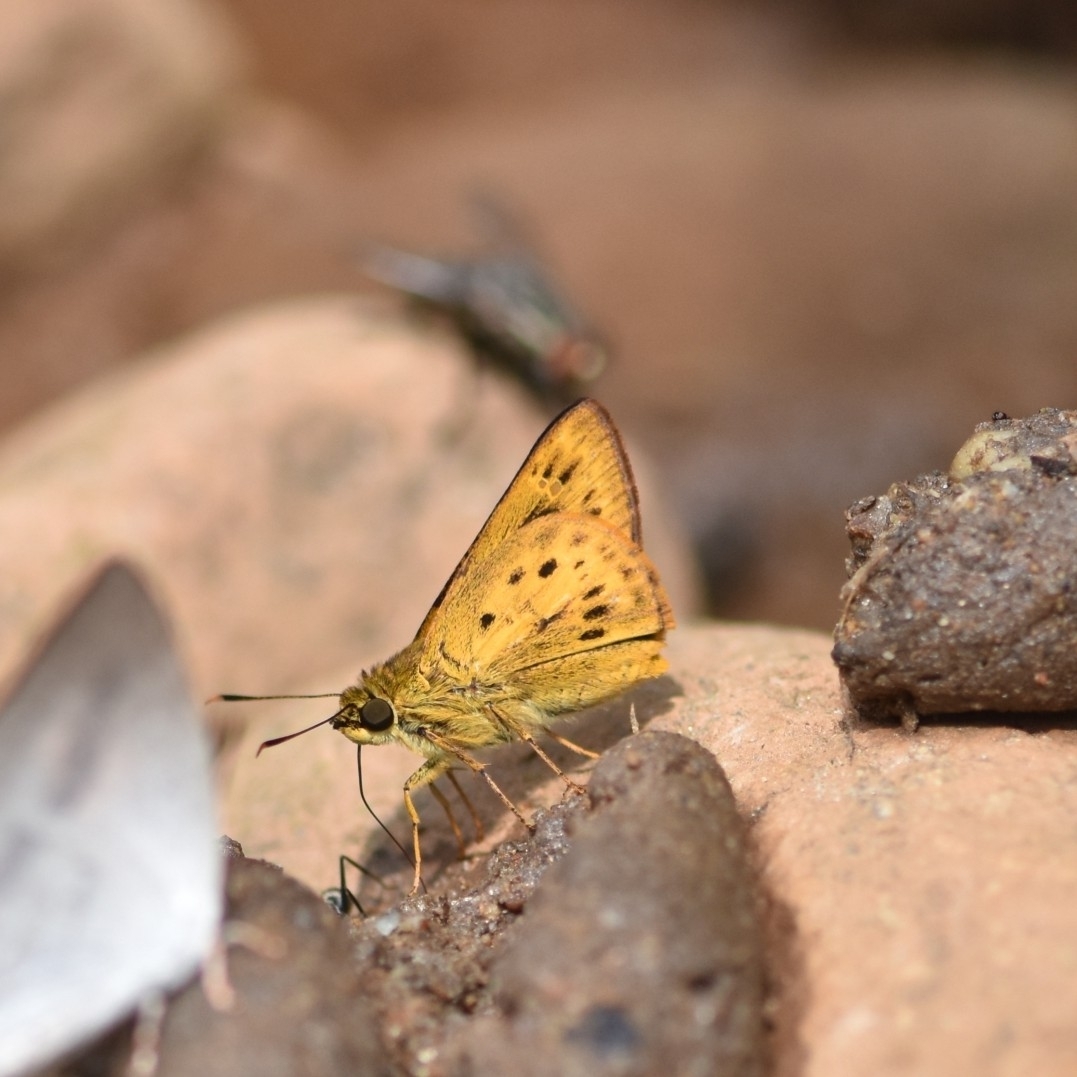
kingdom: Animalia
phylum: Arthropoda
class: Insecta
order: Lepidoptera
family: Hesperiidae
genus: Thoressa
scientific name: Thoressa honorei
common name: Madras ace
